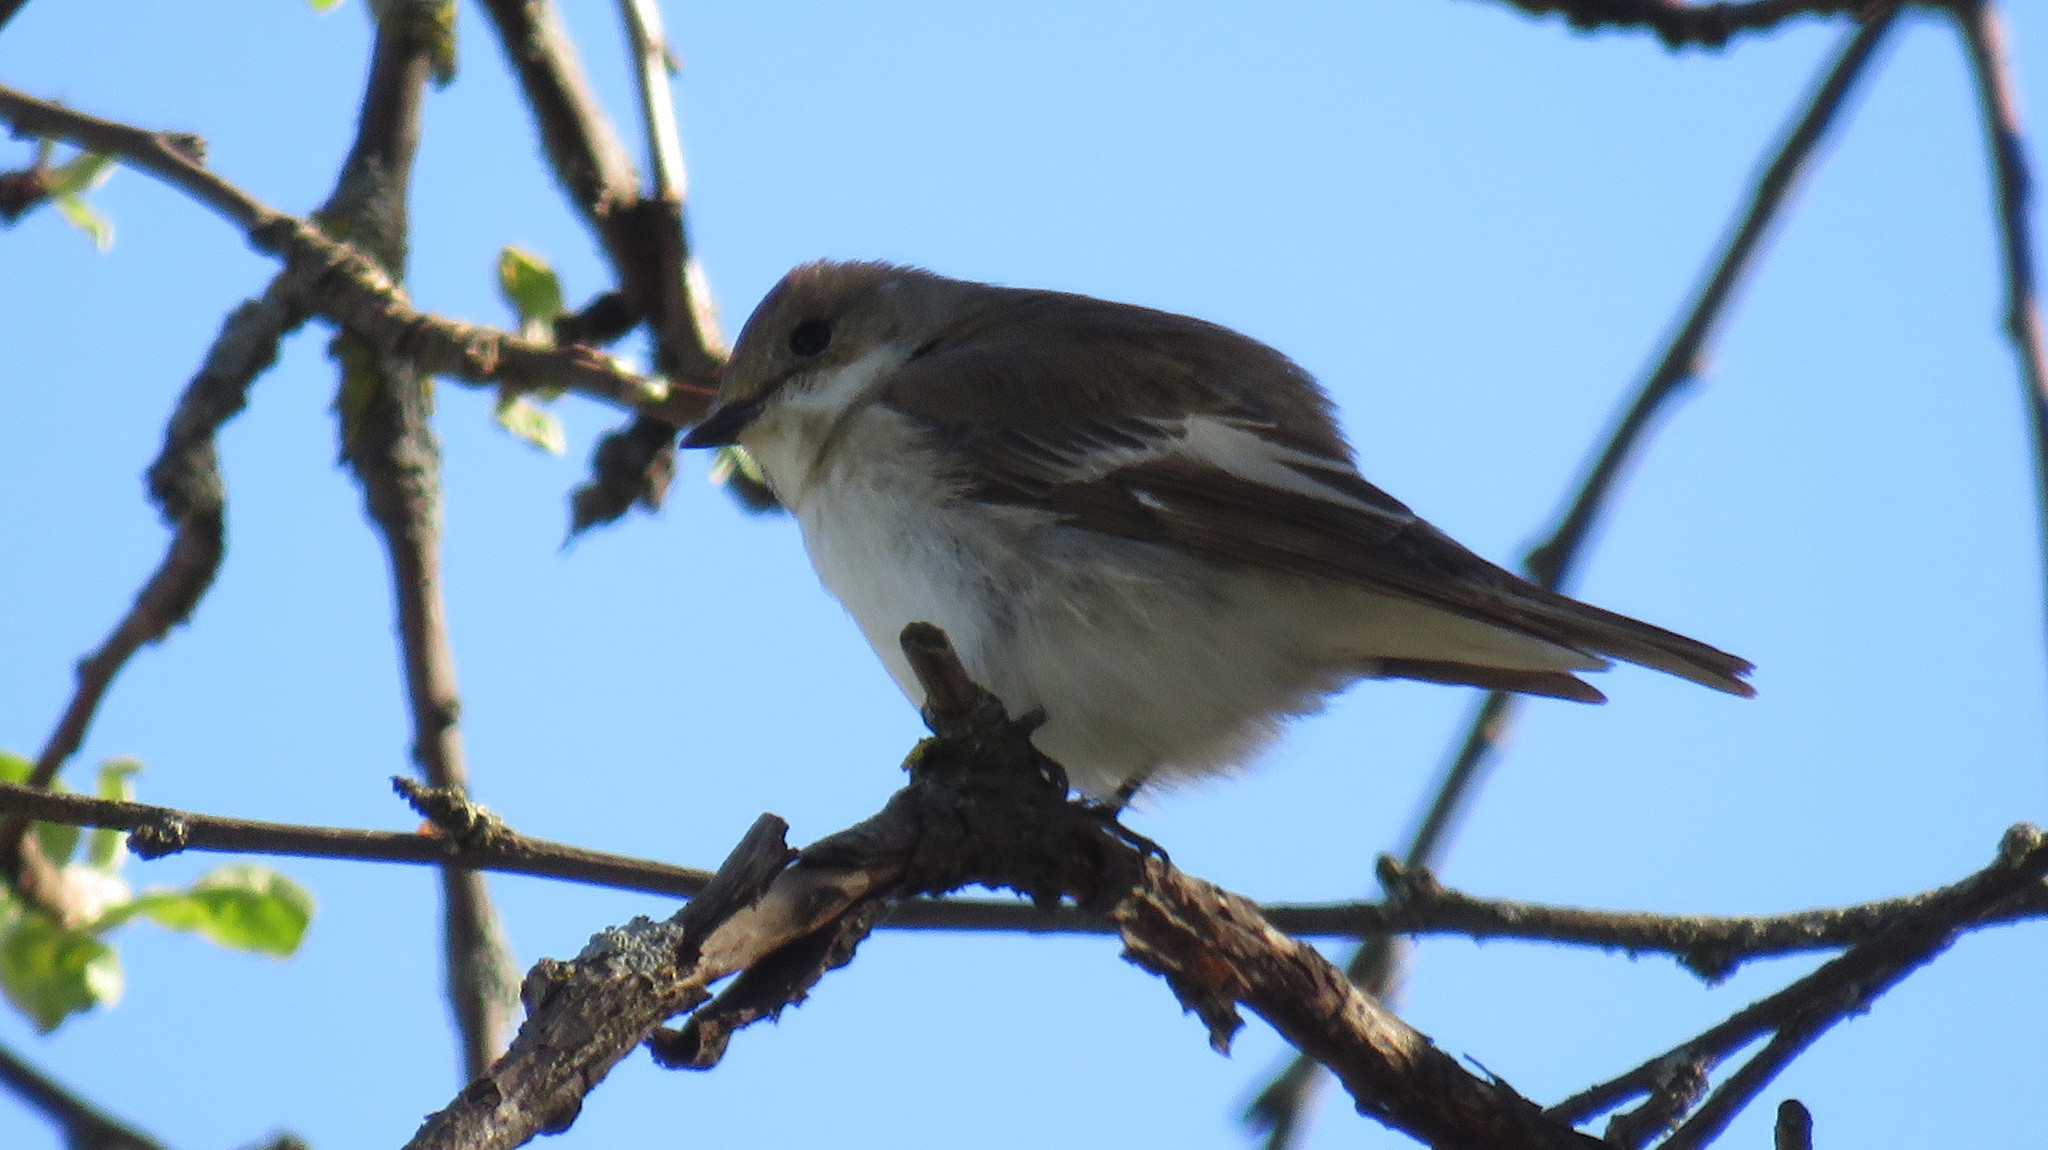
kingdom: Animalia
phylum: Chordata
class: Aves
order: Passeriformes
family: Muscicapidae
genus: Ficedula
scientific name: Ficedula hypoleuca
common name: European pied flycatcher
